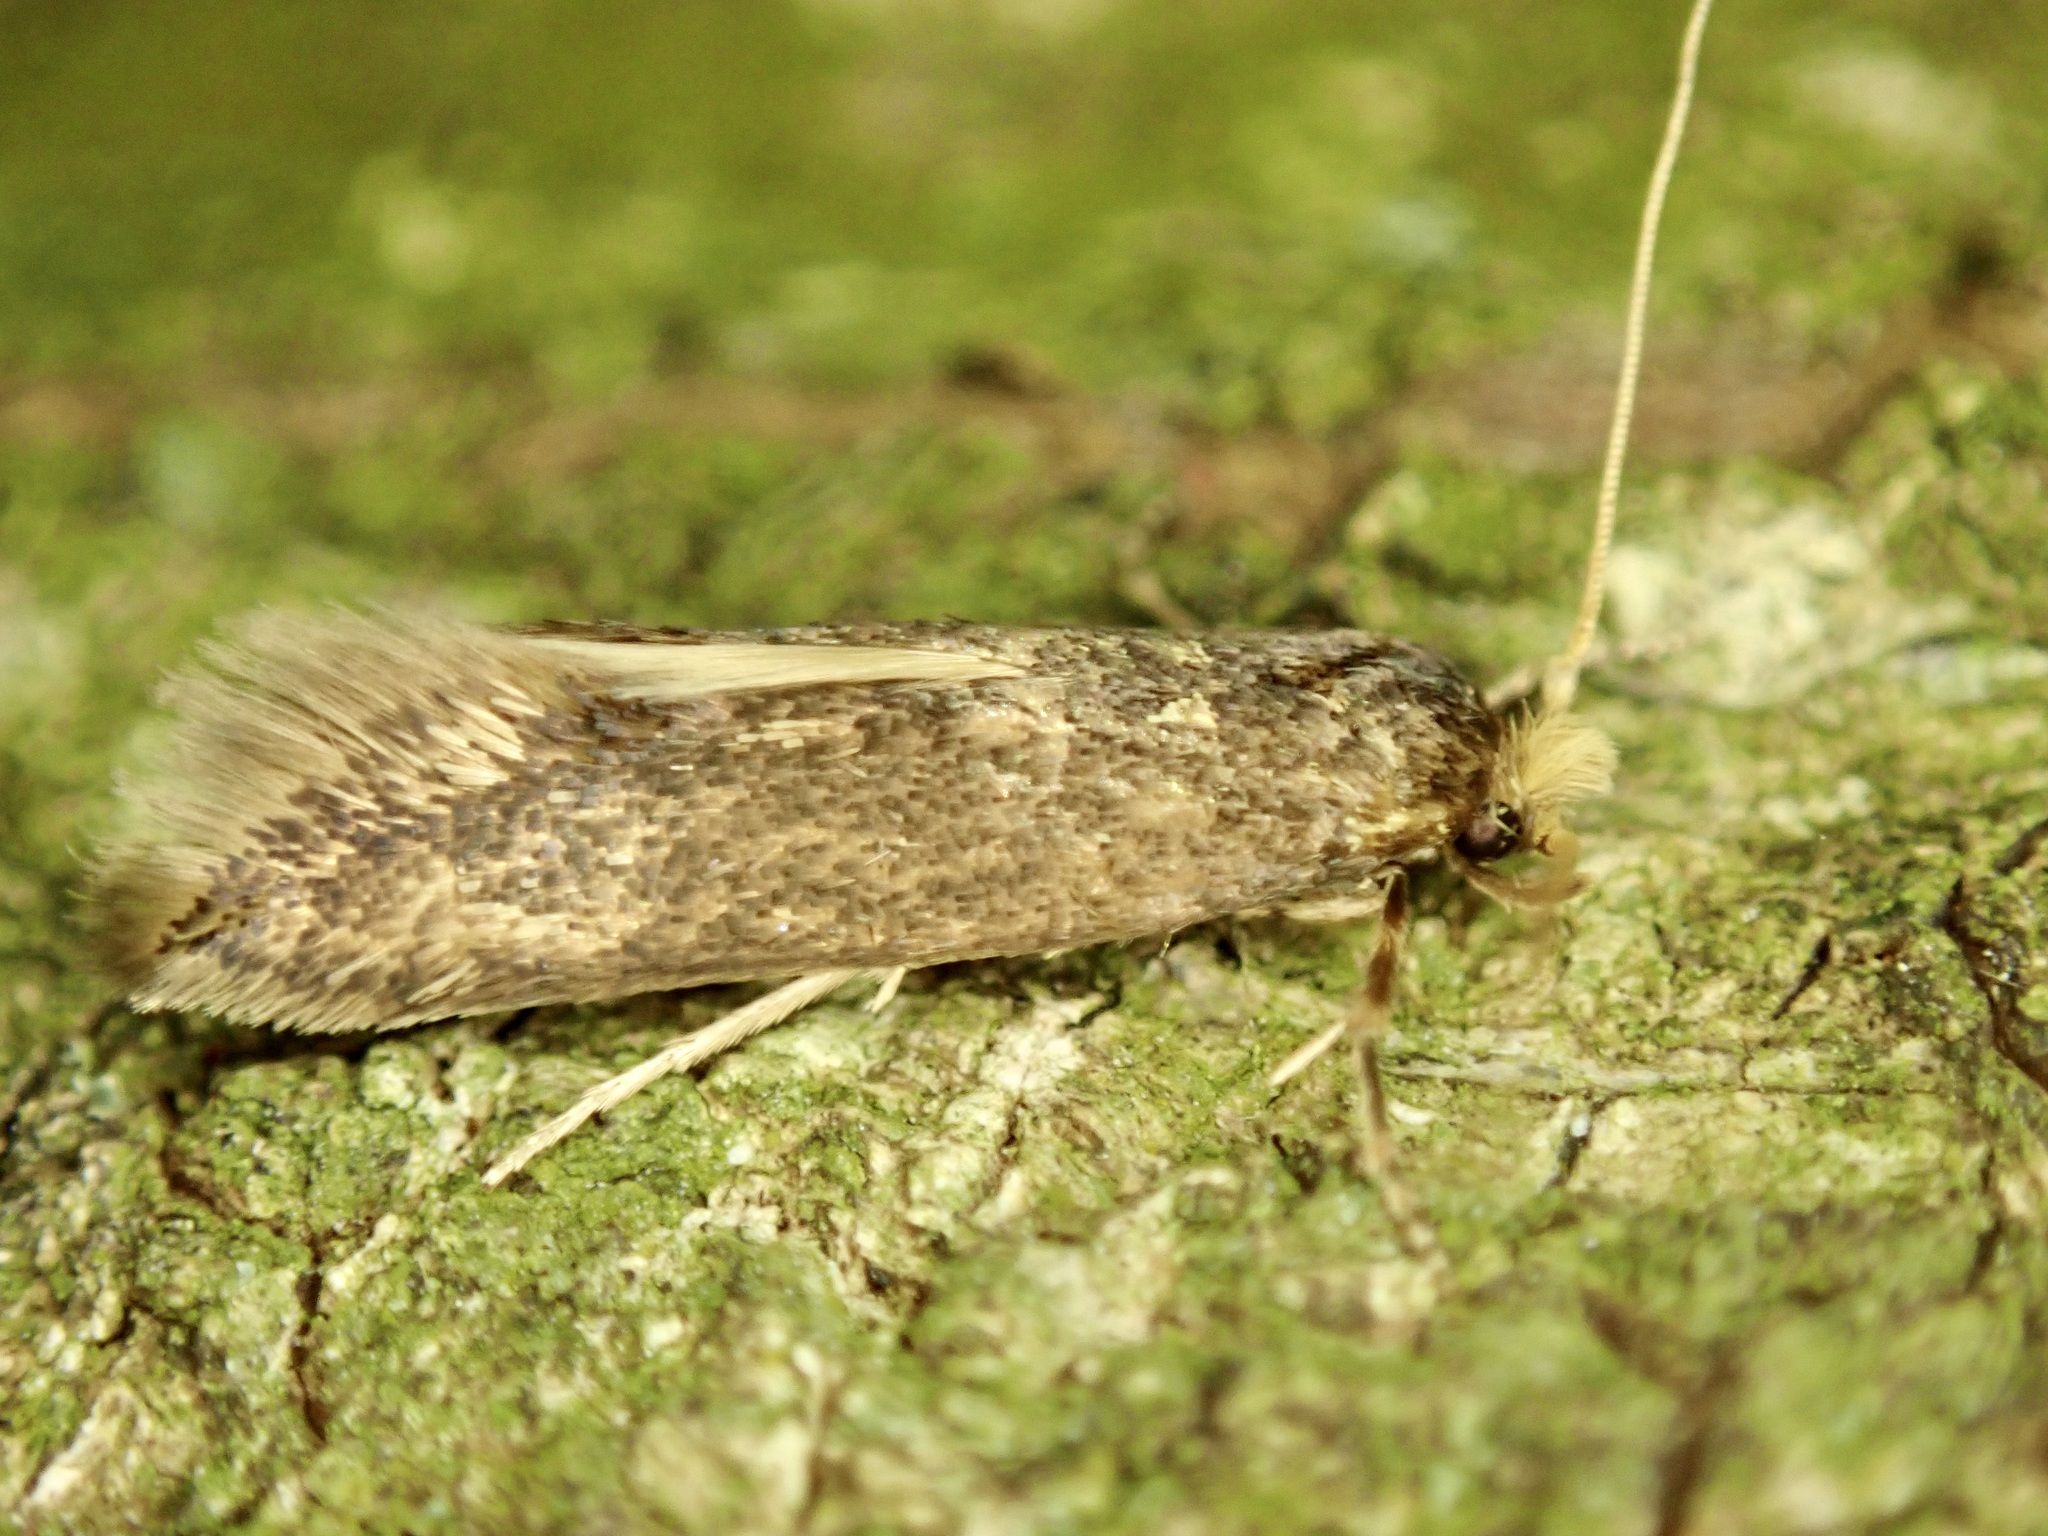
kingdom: Animalia
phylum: Arthropoda
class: Insecta
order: Lepidoptera
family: Tineidae
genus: Opogona
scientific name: Opogona omoscopa
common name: Moth
